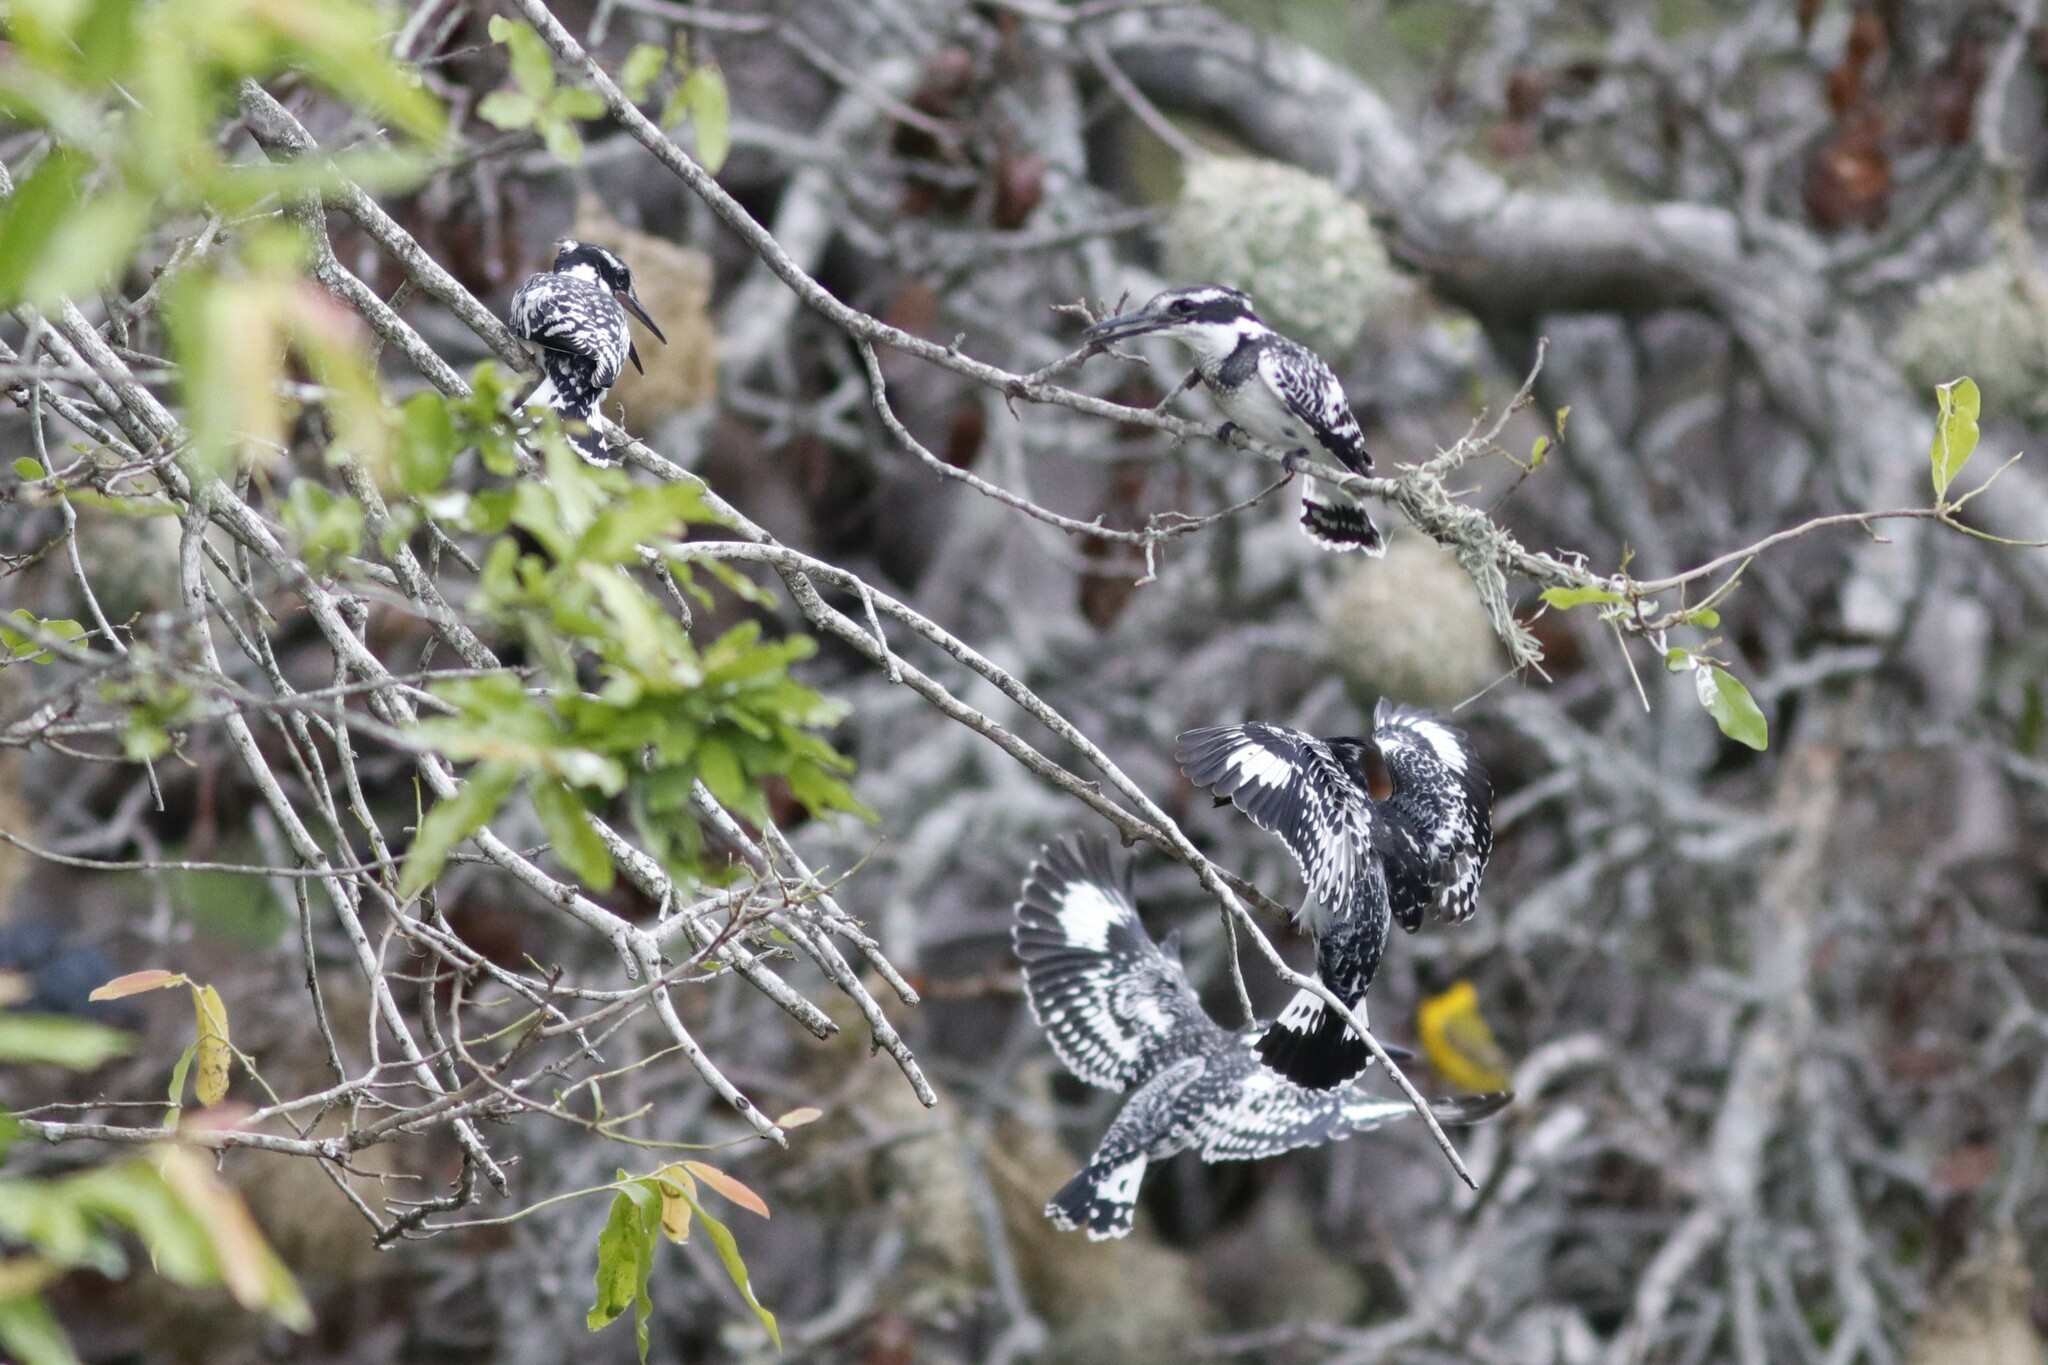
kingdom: Animalia
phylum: Chordata
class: Aves
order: Coraciiformes
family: Alcedinidae
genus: Ceryle
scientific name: Ceryle rudis
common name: Pied kingfisher
